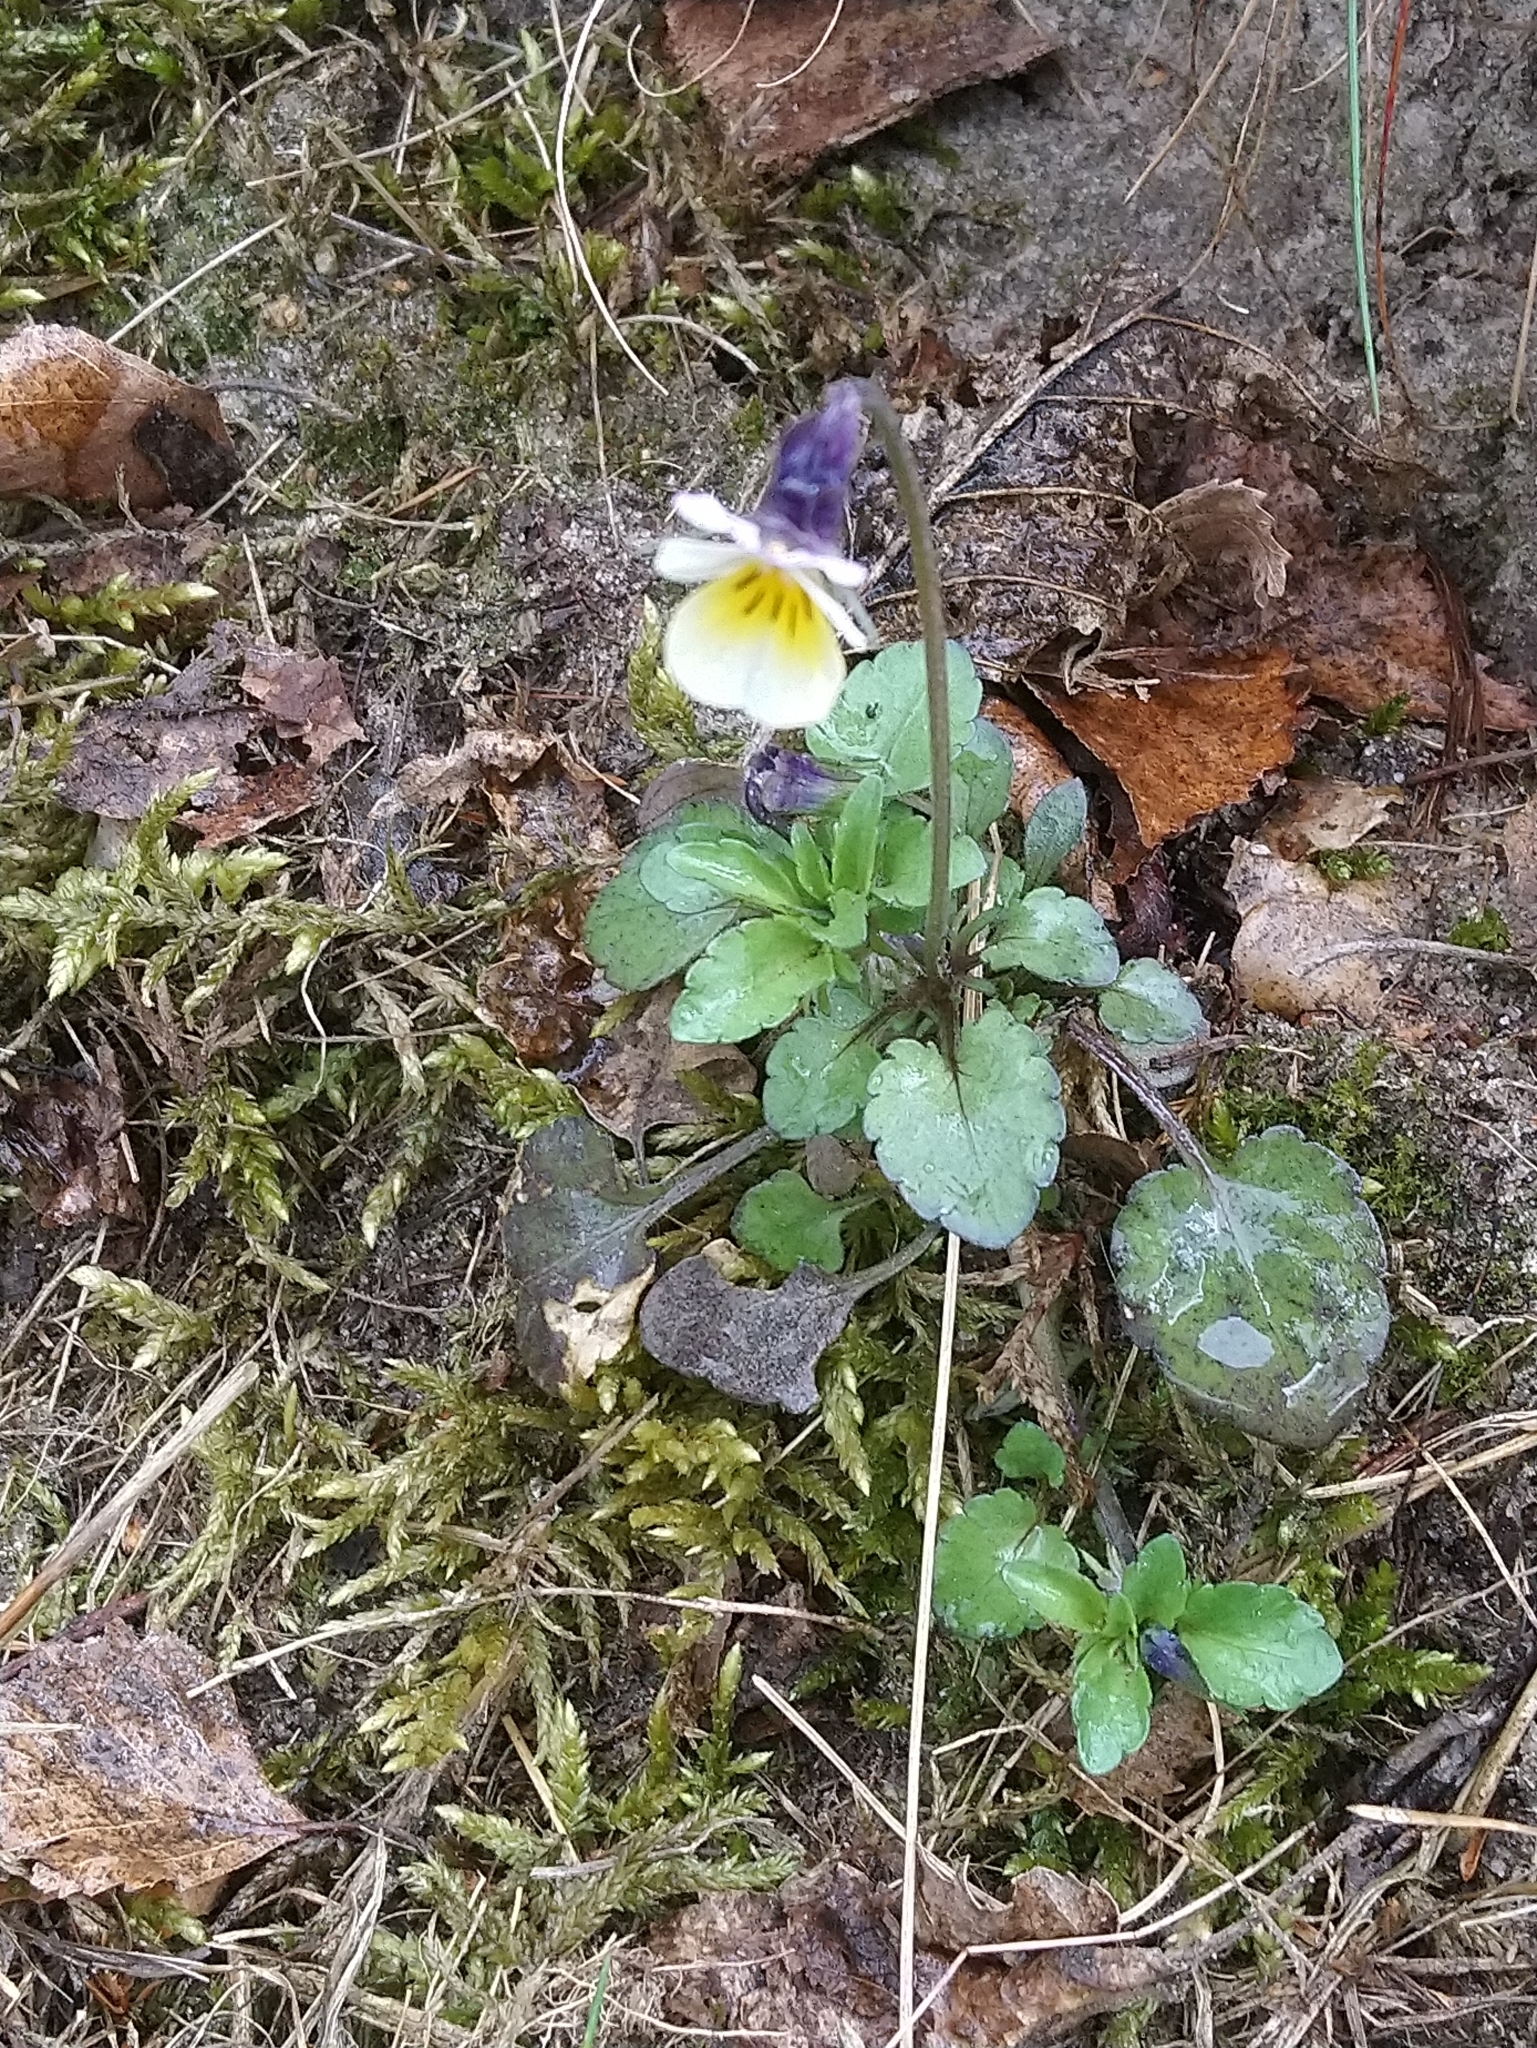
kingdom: Plantae
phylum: Tracheophyta
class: Magnoliopsida
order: Malpighiales
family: Violaceae
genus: Viola
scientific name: Viola arvensis
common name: Field pansy
